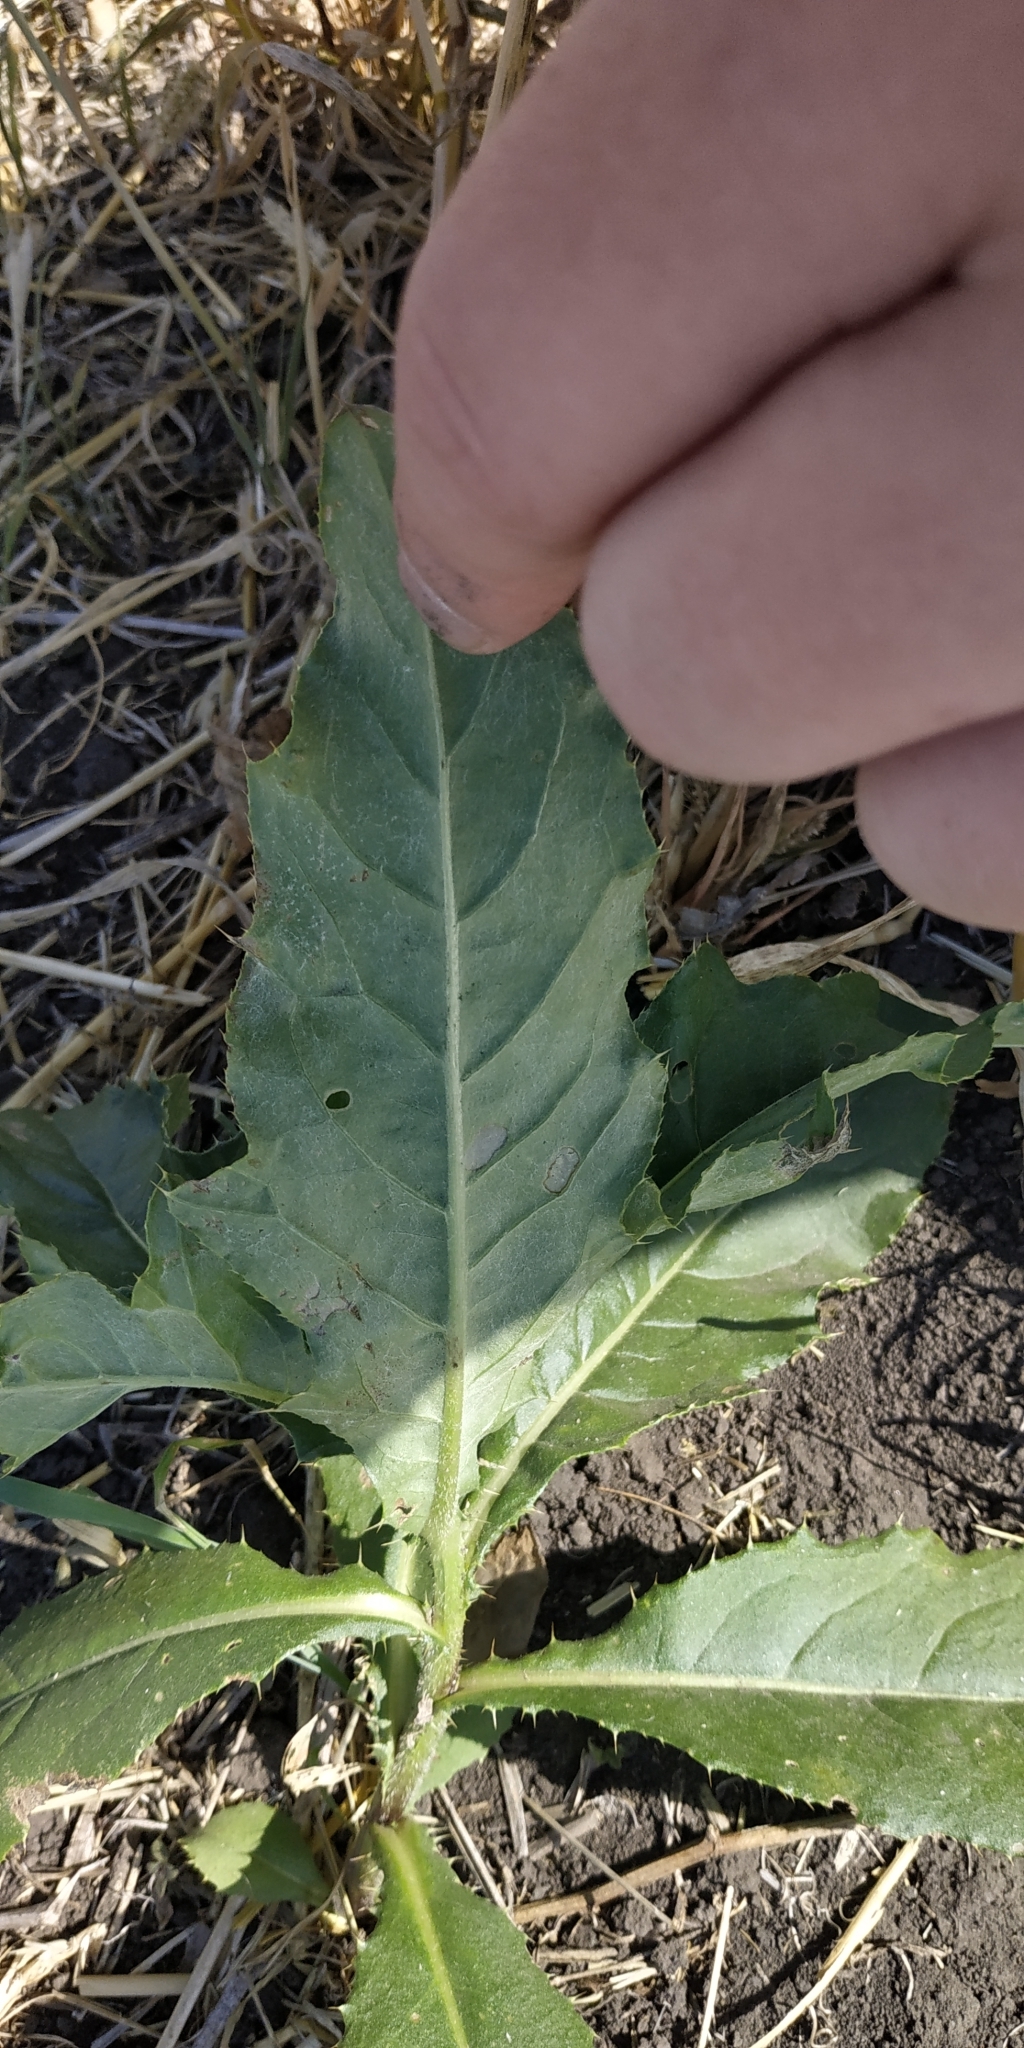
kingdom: Plantae
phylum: Tracheophyta
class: Magnoliopsida
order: Asterales
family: Asteraceae
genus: Cirsium
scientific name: Cirsium arvense
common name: Creeping thistle
